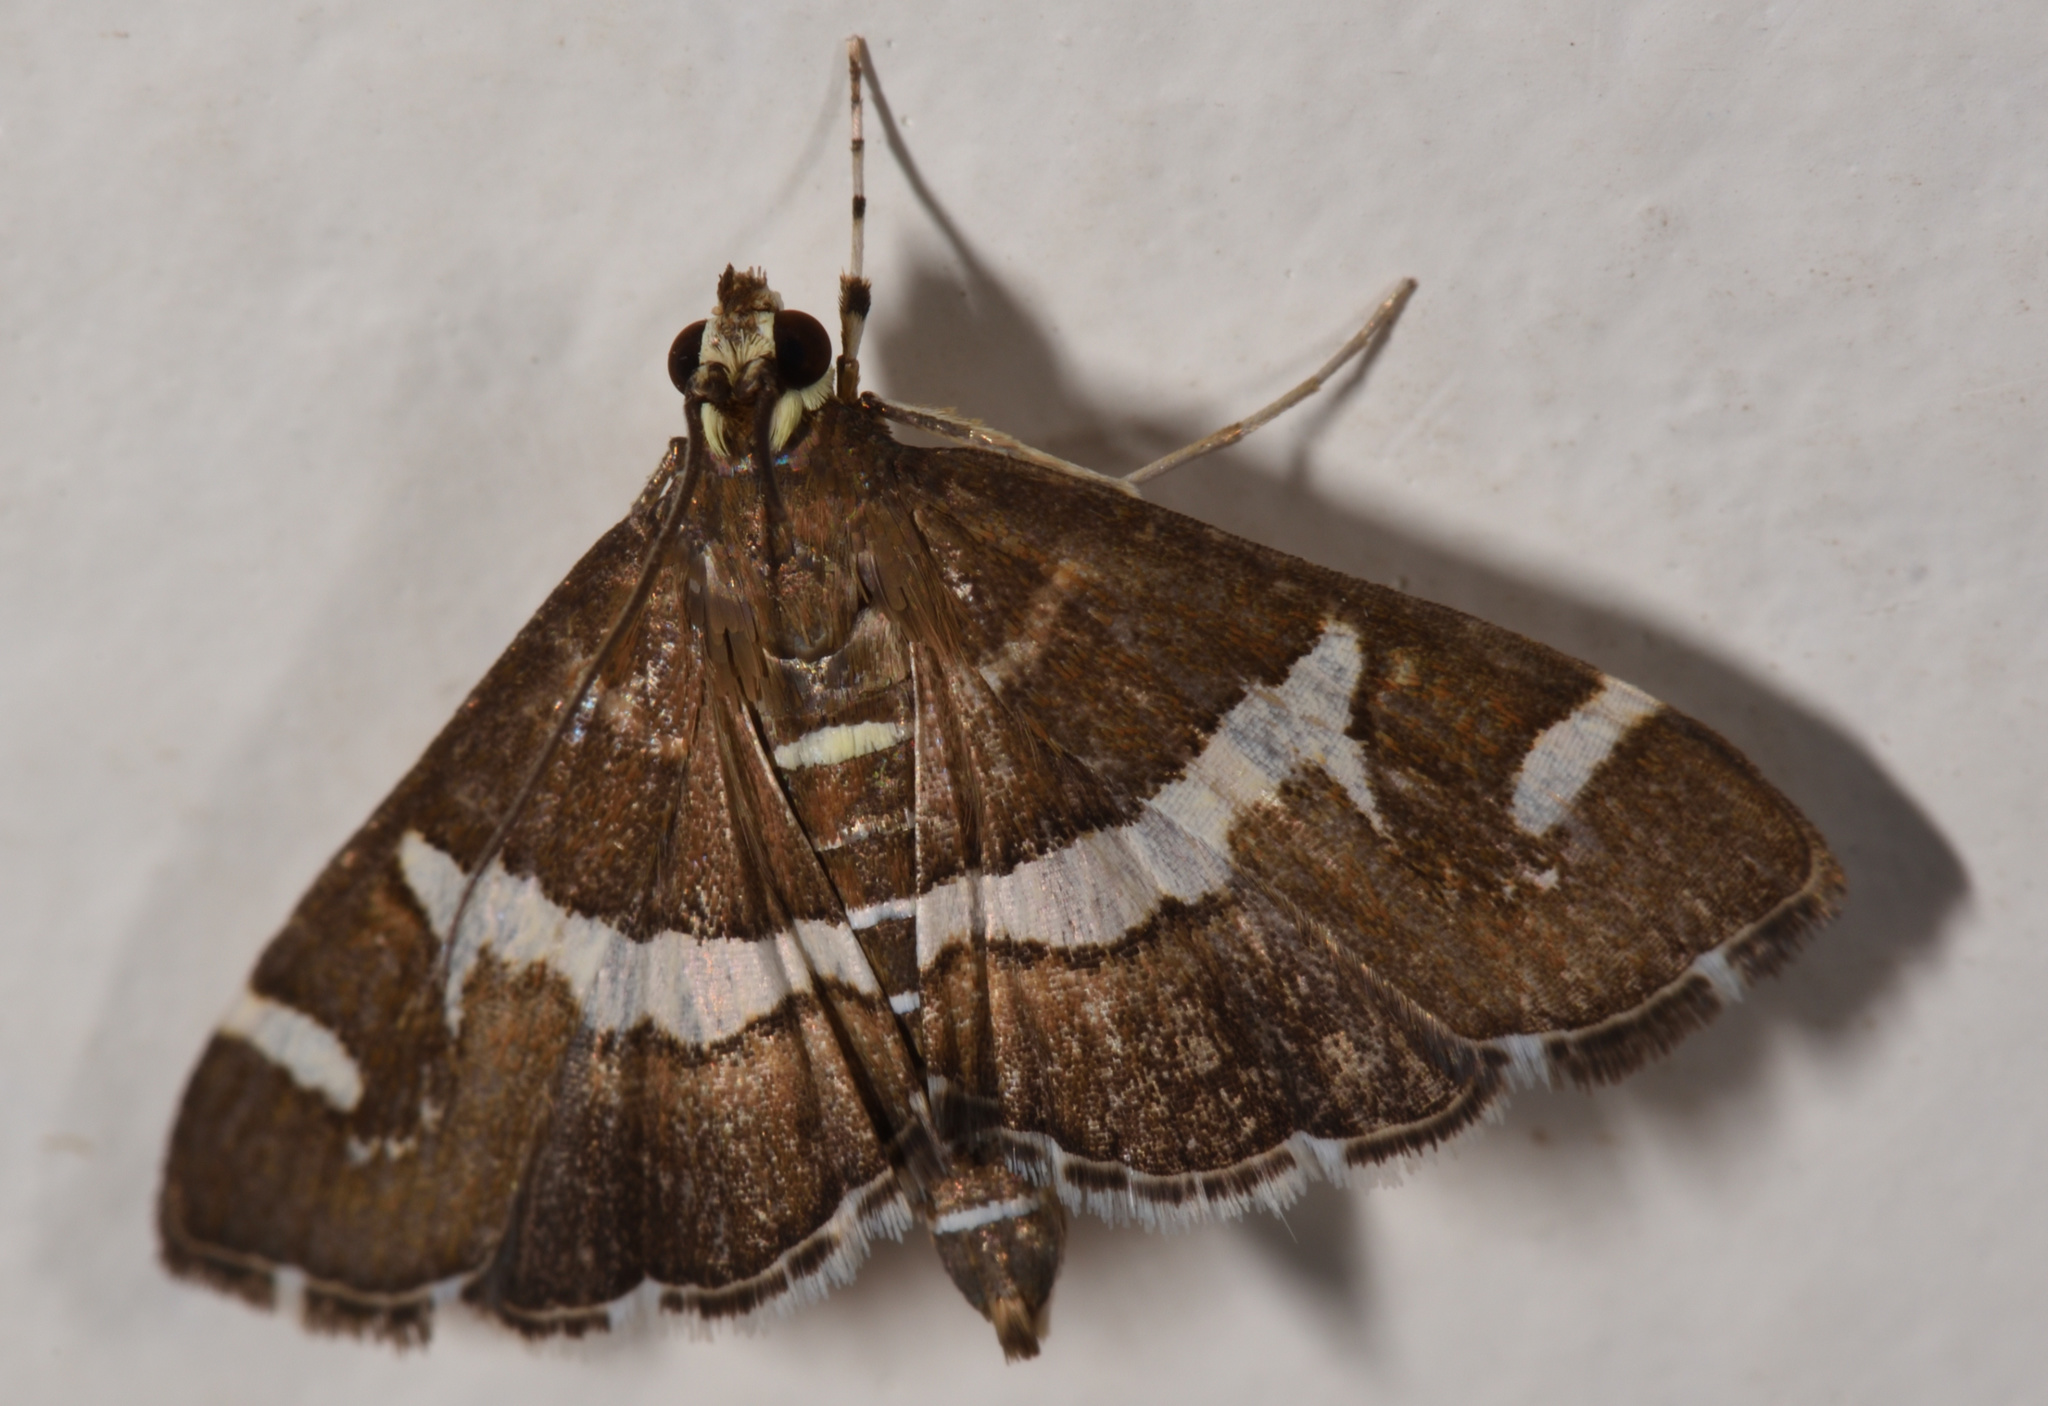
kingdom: Animalia
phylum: Arthropoda
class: Insecta
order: Lepidoptera
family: Crambidae
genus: Spoladea
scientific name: Spoladea recurvalis
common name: Beet webworm moth
